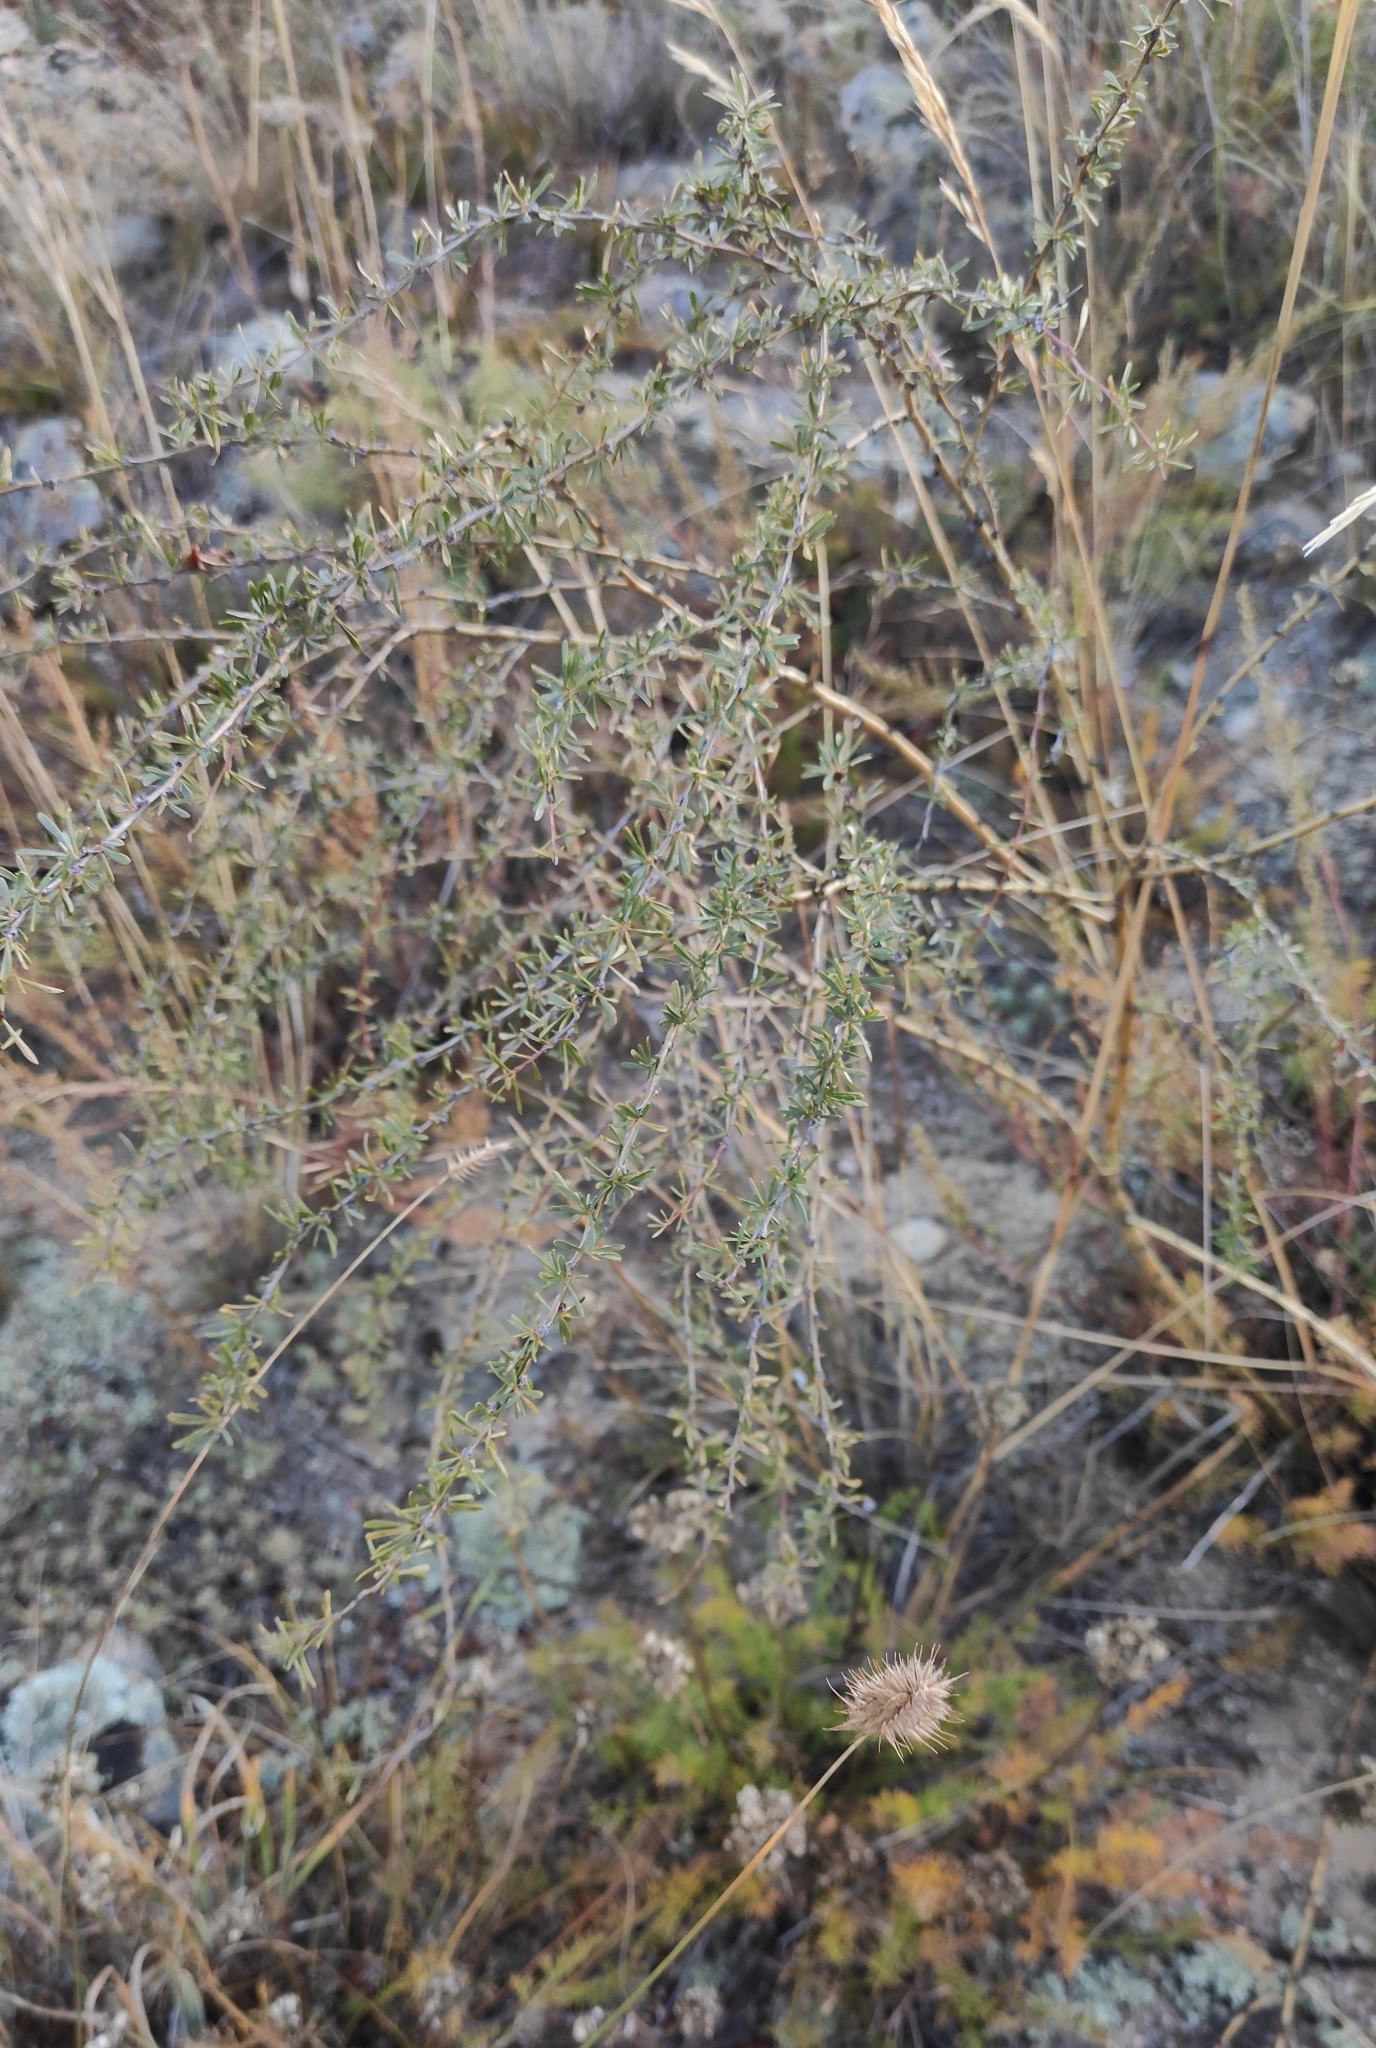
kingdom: Plantae
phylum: Tracheophyta
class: Magnoliopsida
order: Fabales
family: Fabaceae
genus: Caragana
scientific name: Caragana pygmaea
